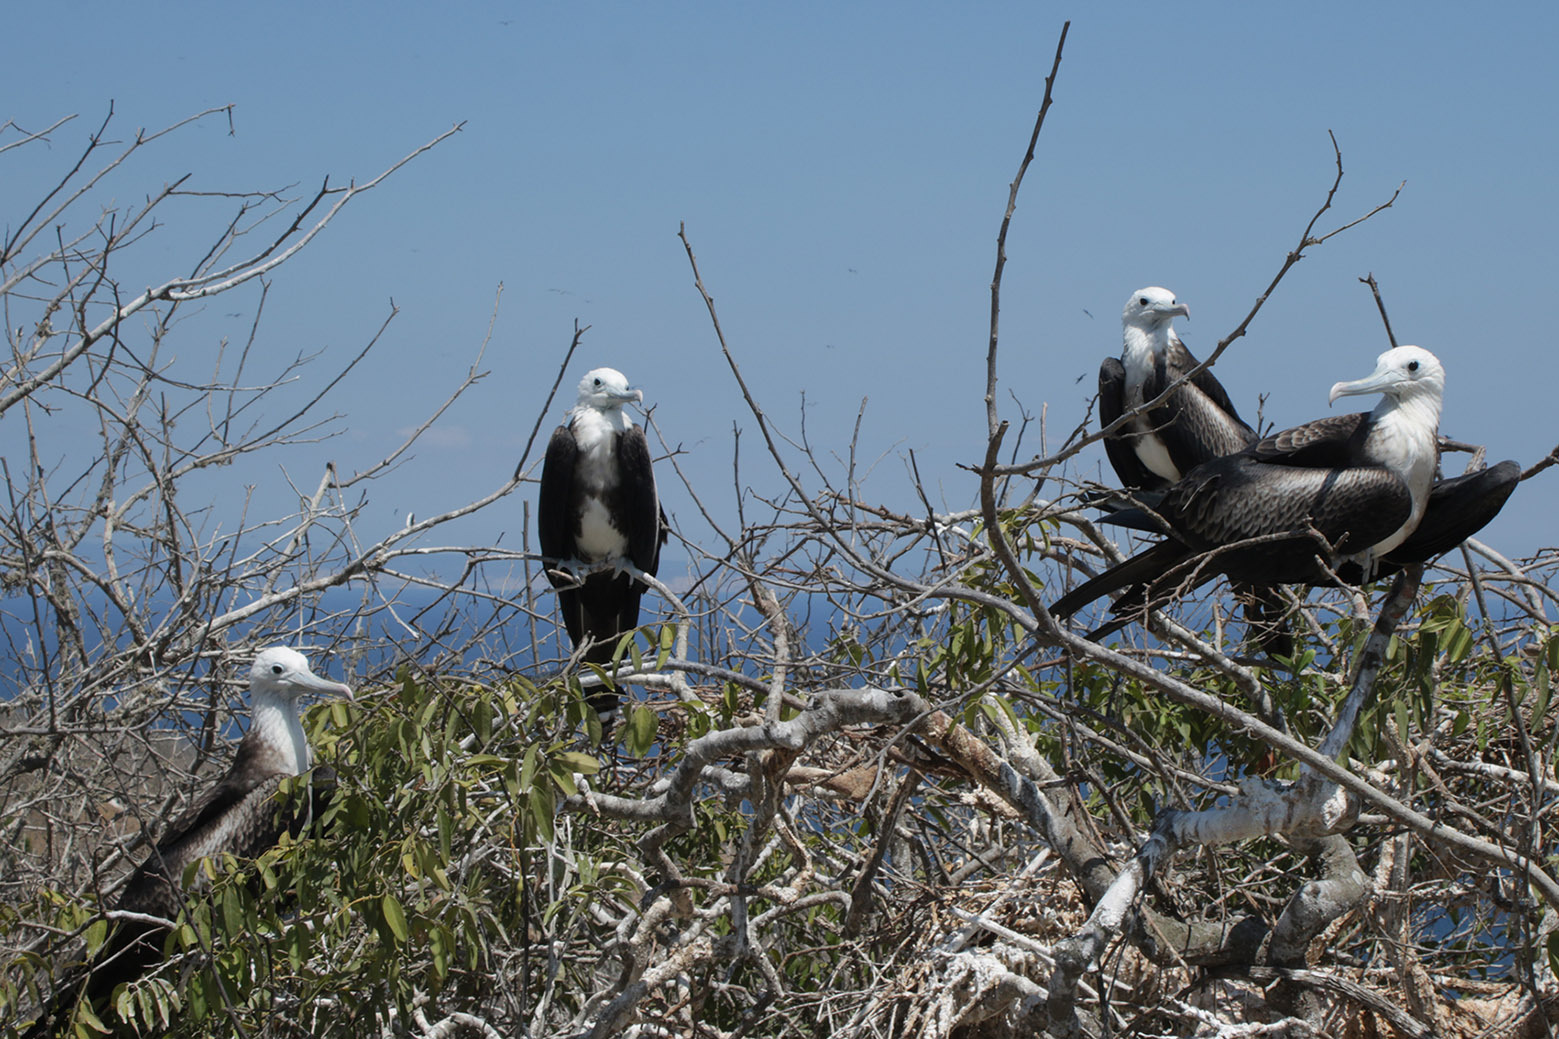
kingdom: Animalia
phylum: Chordata
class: Aves
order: Suliformes
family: Fregatidae
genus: Fregata
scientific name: Fregata magnificens
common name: Magnificent frigatebird
